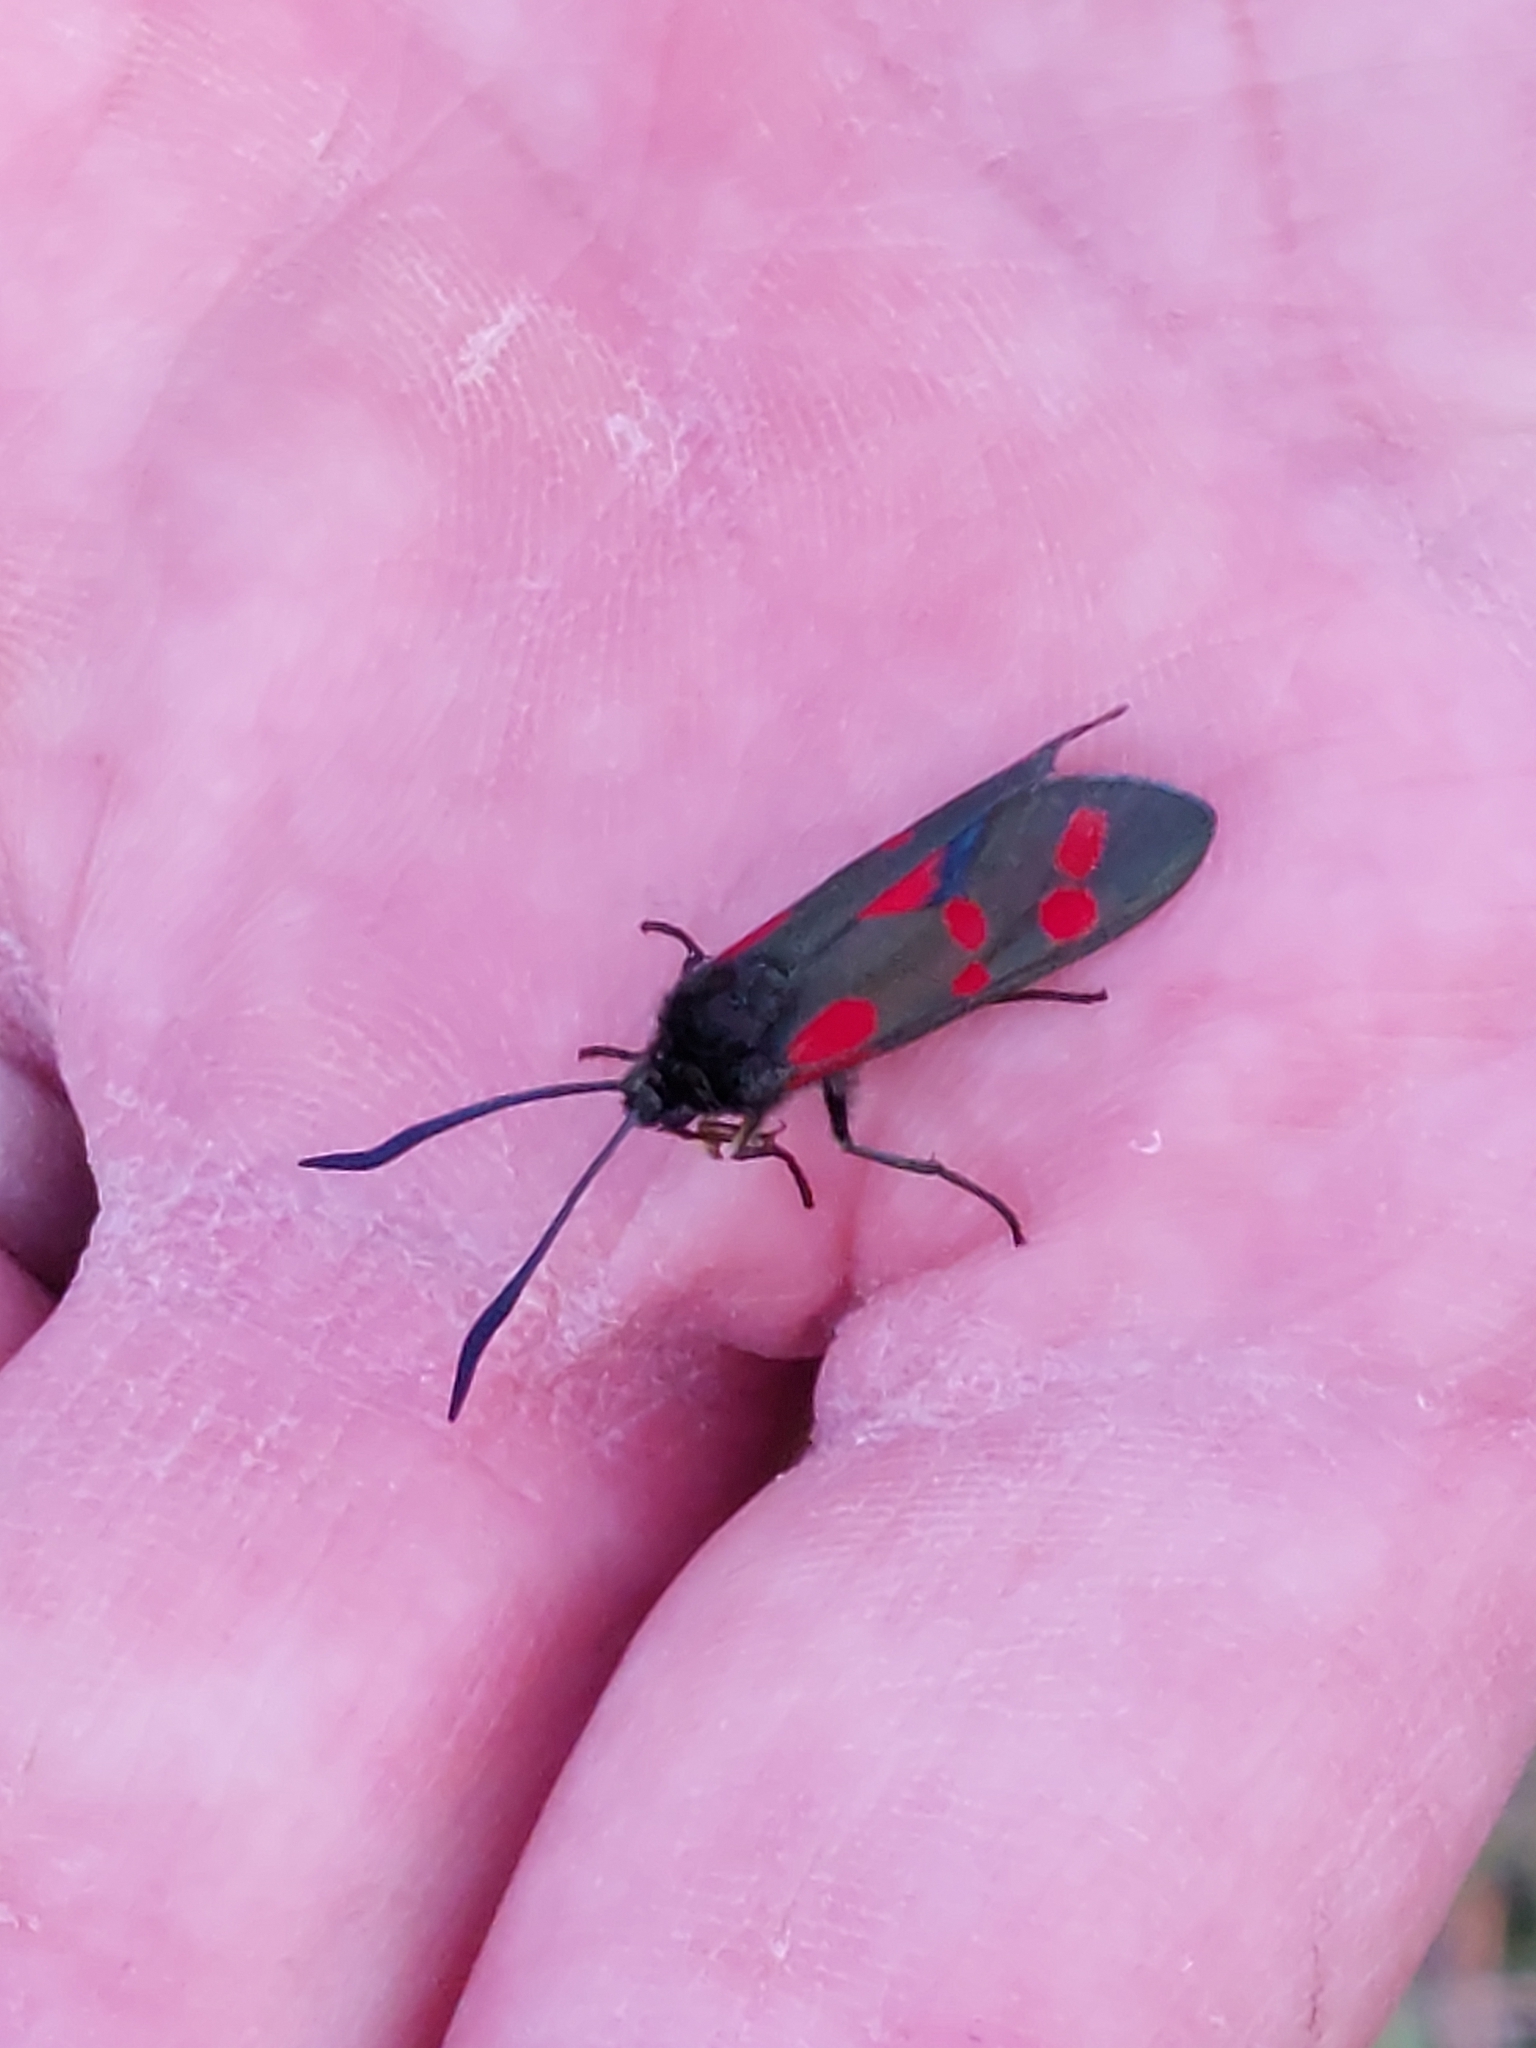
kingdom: Animalia
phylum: Arthropoda
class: Insecta
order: Lepidoptera
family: Zygaenidae
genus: Zygaena
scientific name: Zygaena filipendulae
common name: Six-spot burnet
